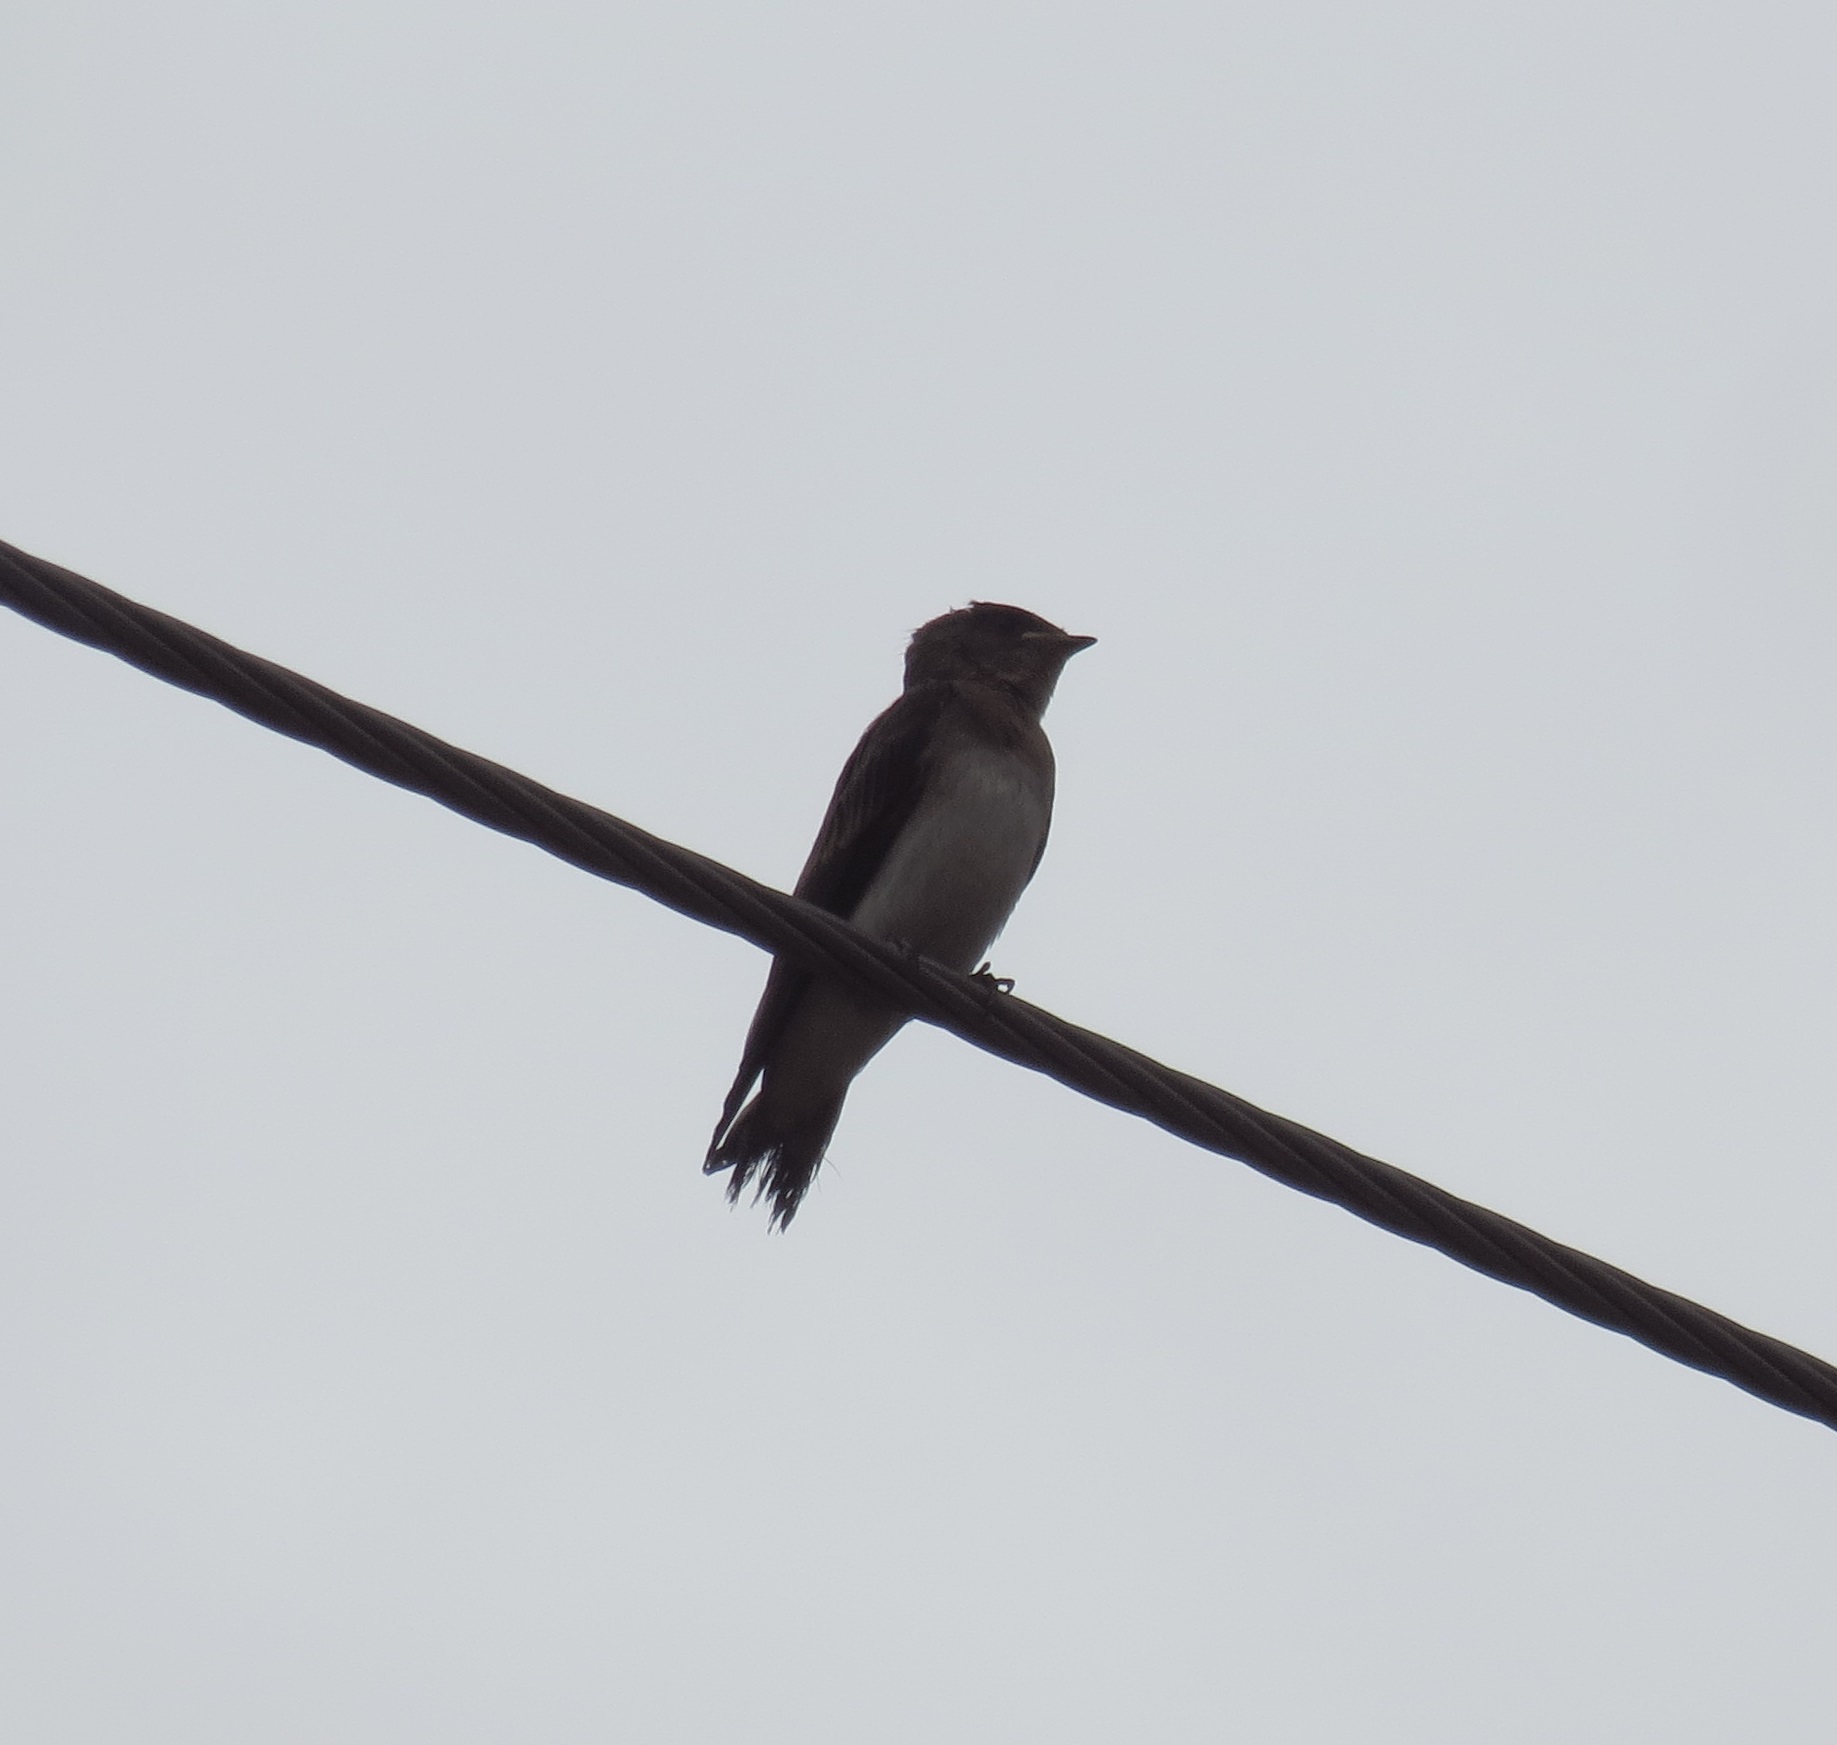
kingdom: Animalia
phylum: Chordata
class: Aves
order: Passeriformes
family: Hirundinidae
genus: Stelgidopteryx
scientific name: Stelgidopteryx serripennis
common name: Northern rough-winged swallow
